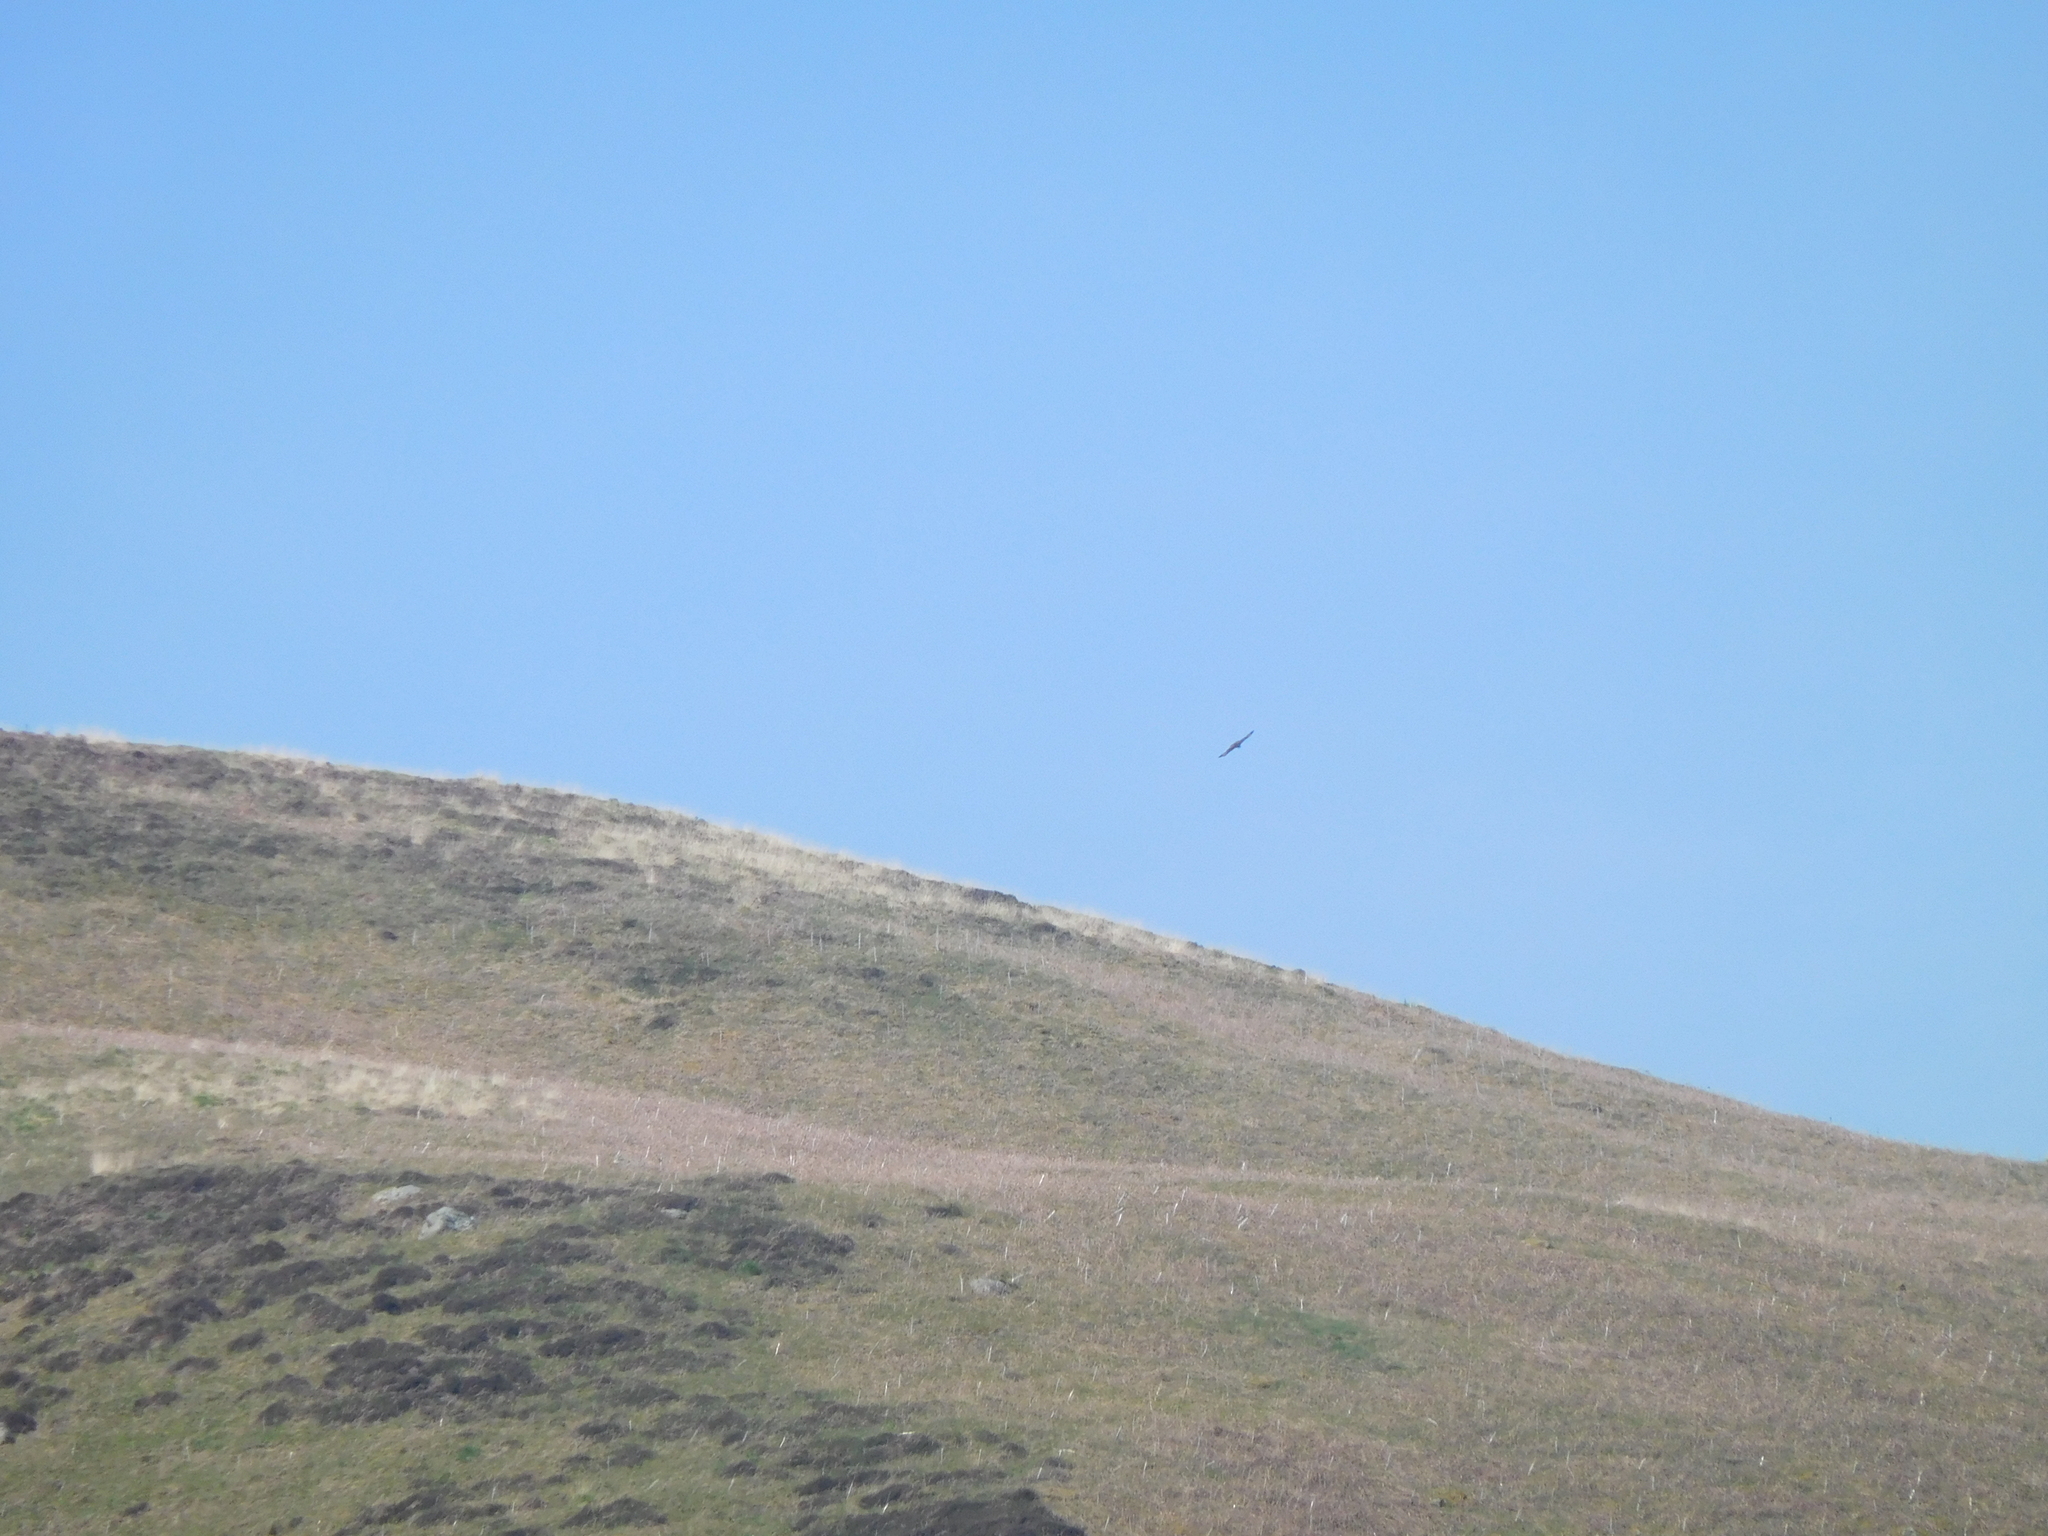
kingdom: Animalia
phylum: Chordata
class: Aves
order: Accipitriformes
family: Accipitridae
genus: Buteo
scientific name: Buteo buteo
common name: Common buzzard
